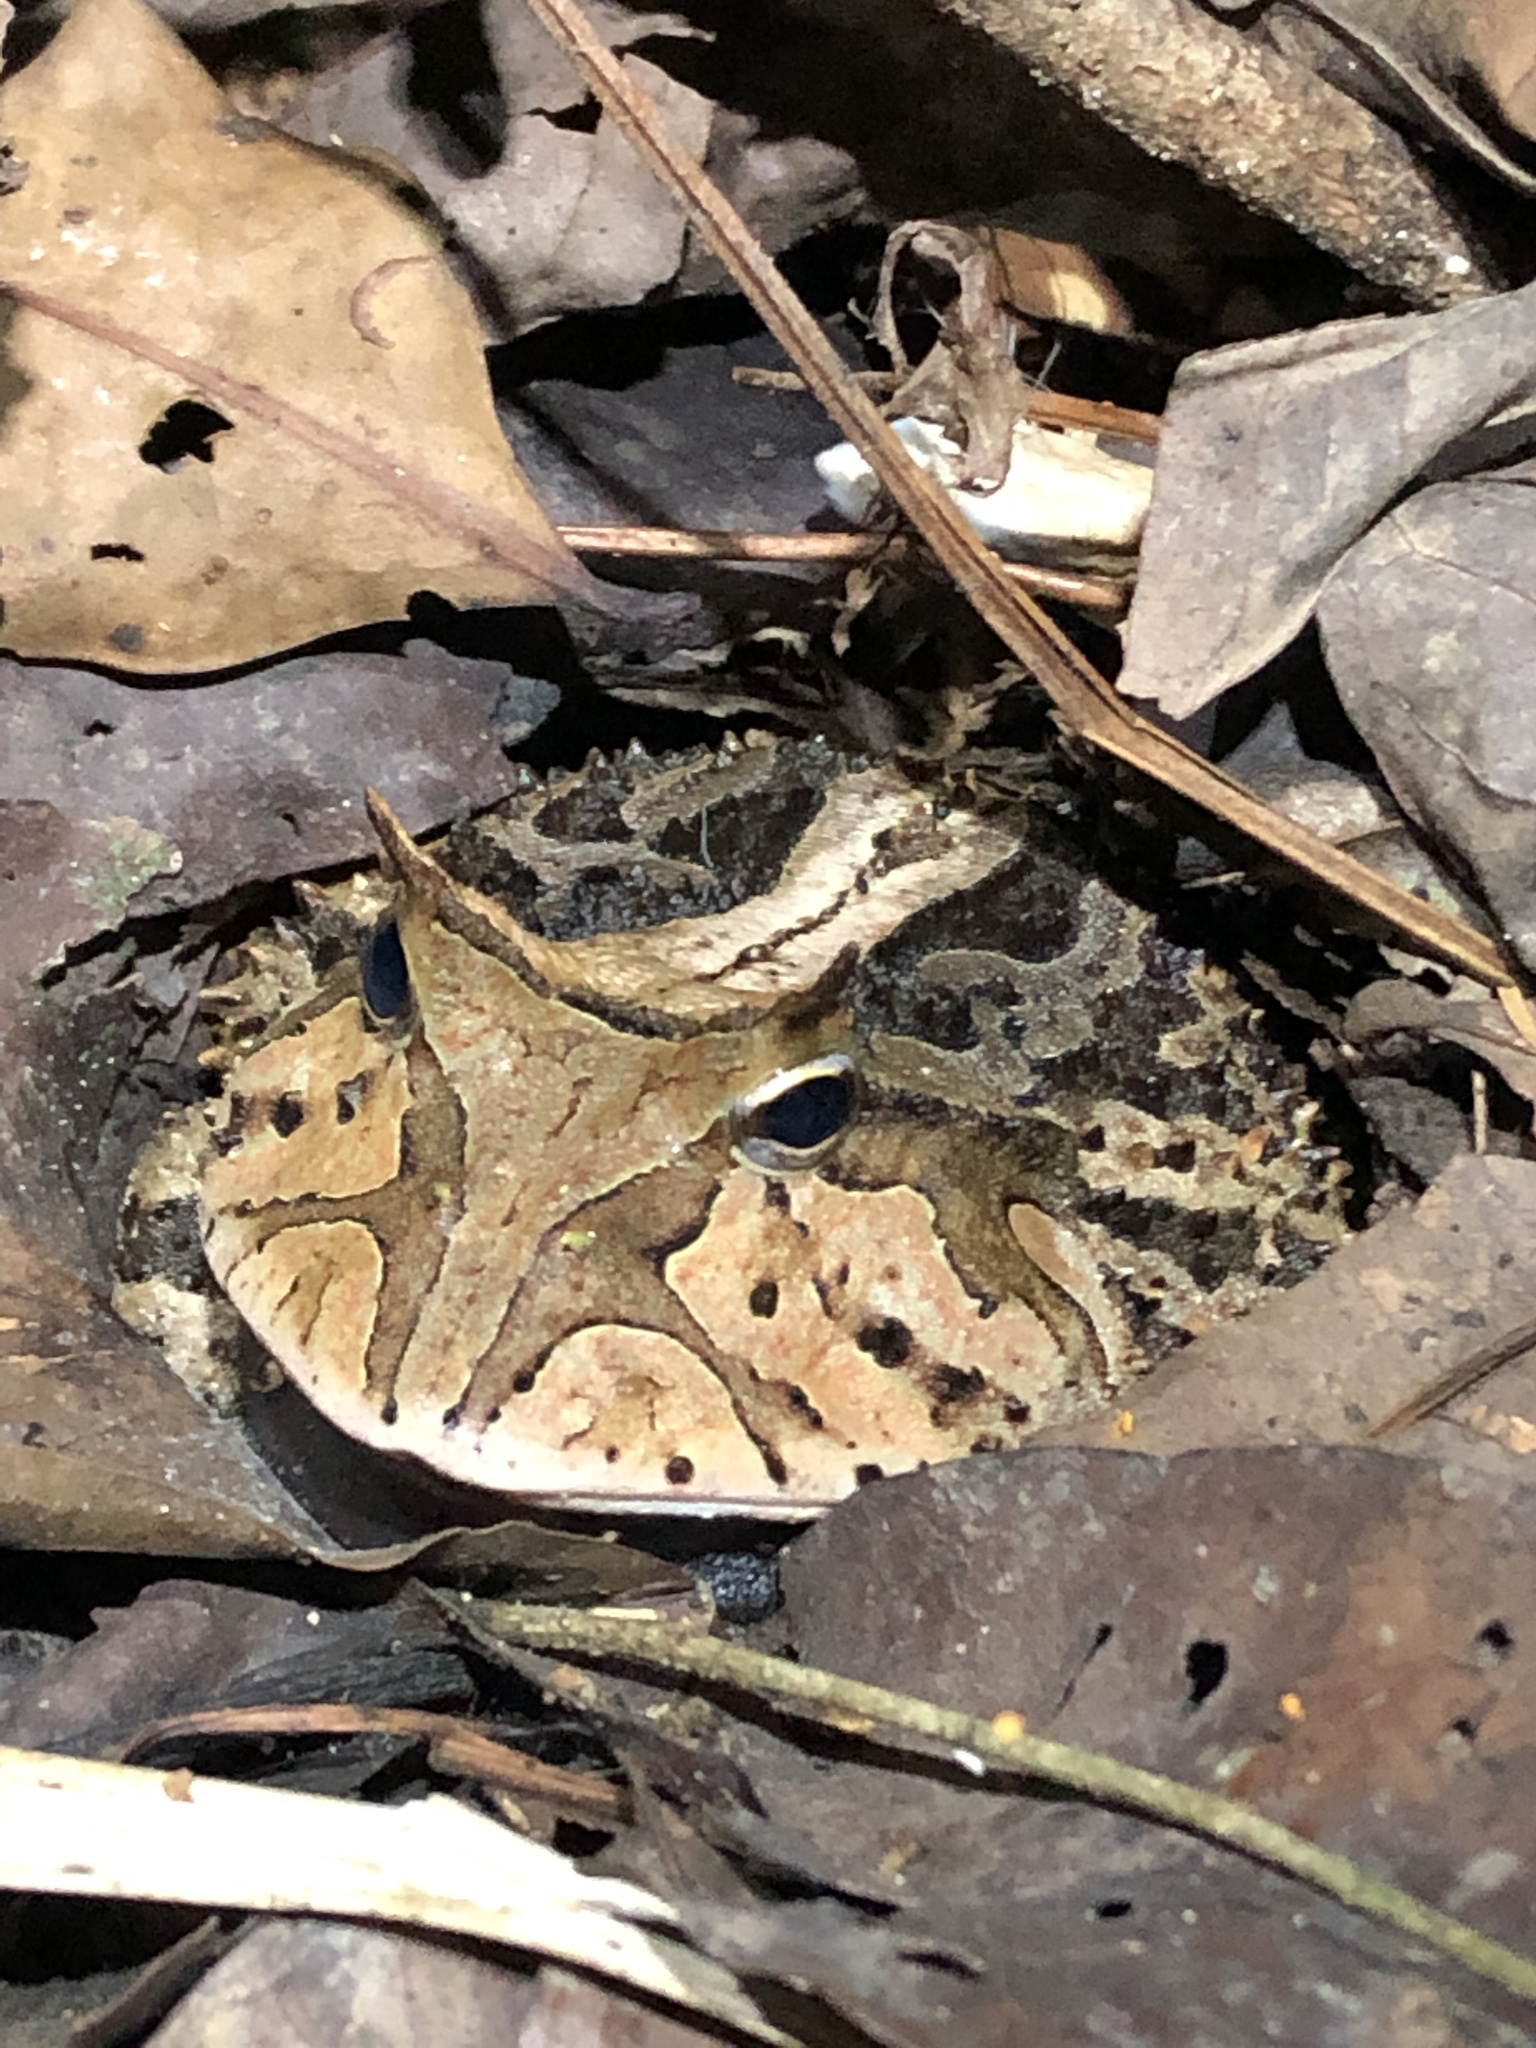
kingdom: Animalia
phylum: Chordata
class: Amphibia
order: Anura
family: Ceratophryidae
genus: Ceratophrys
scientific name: Ceratophrys cornuta
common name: Amazonian horned frog
